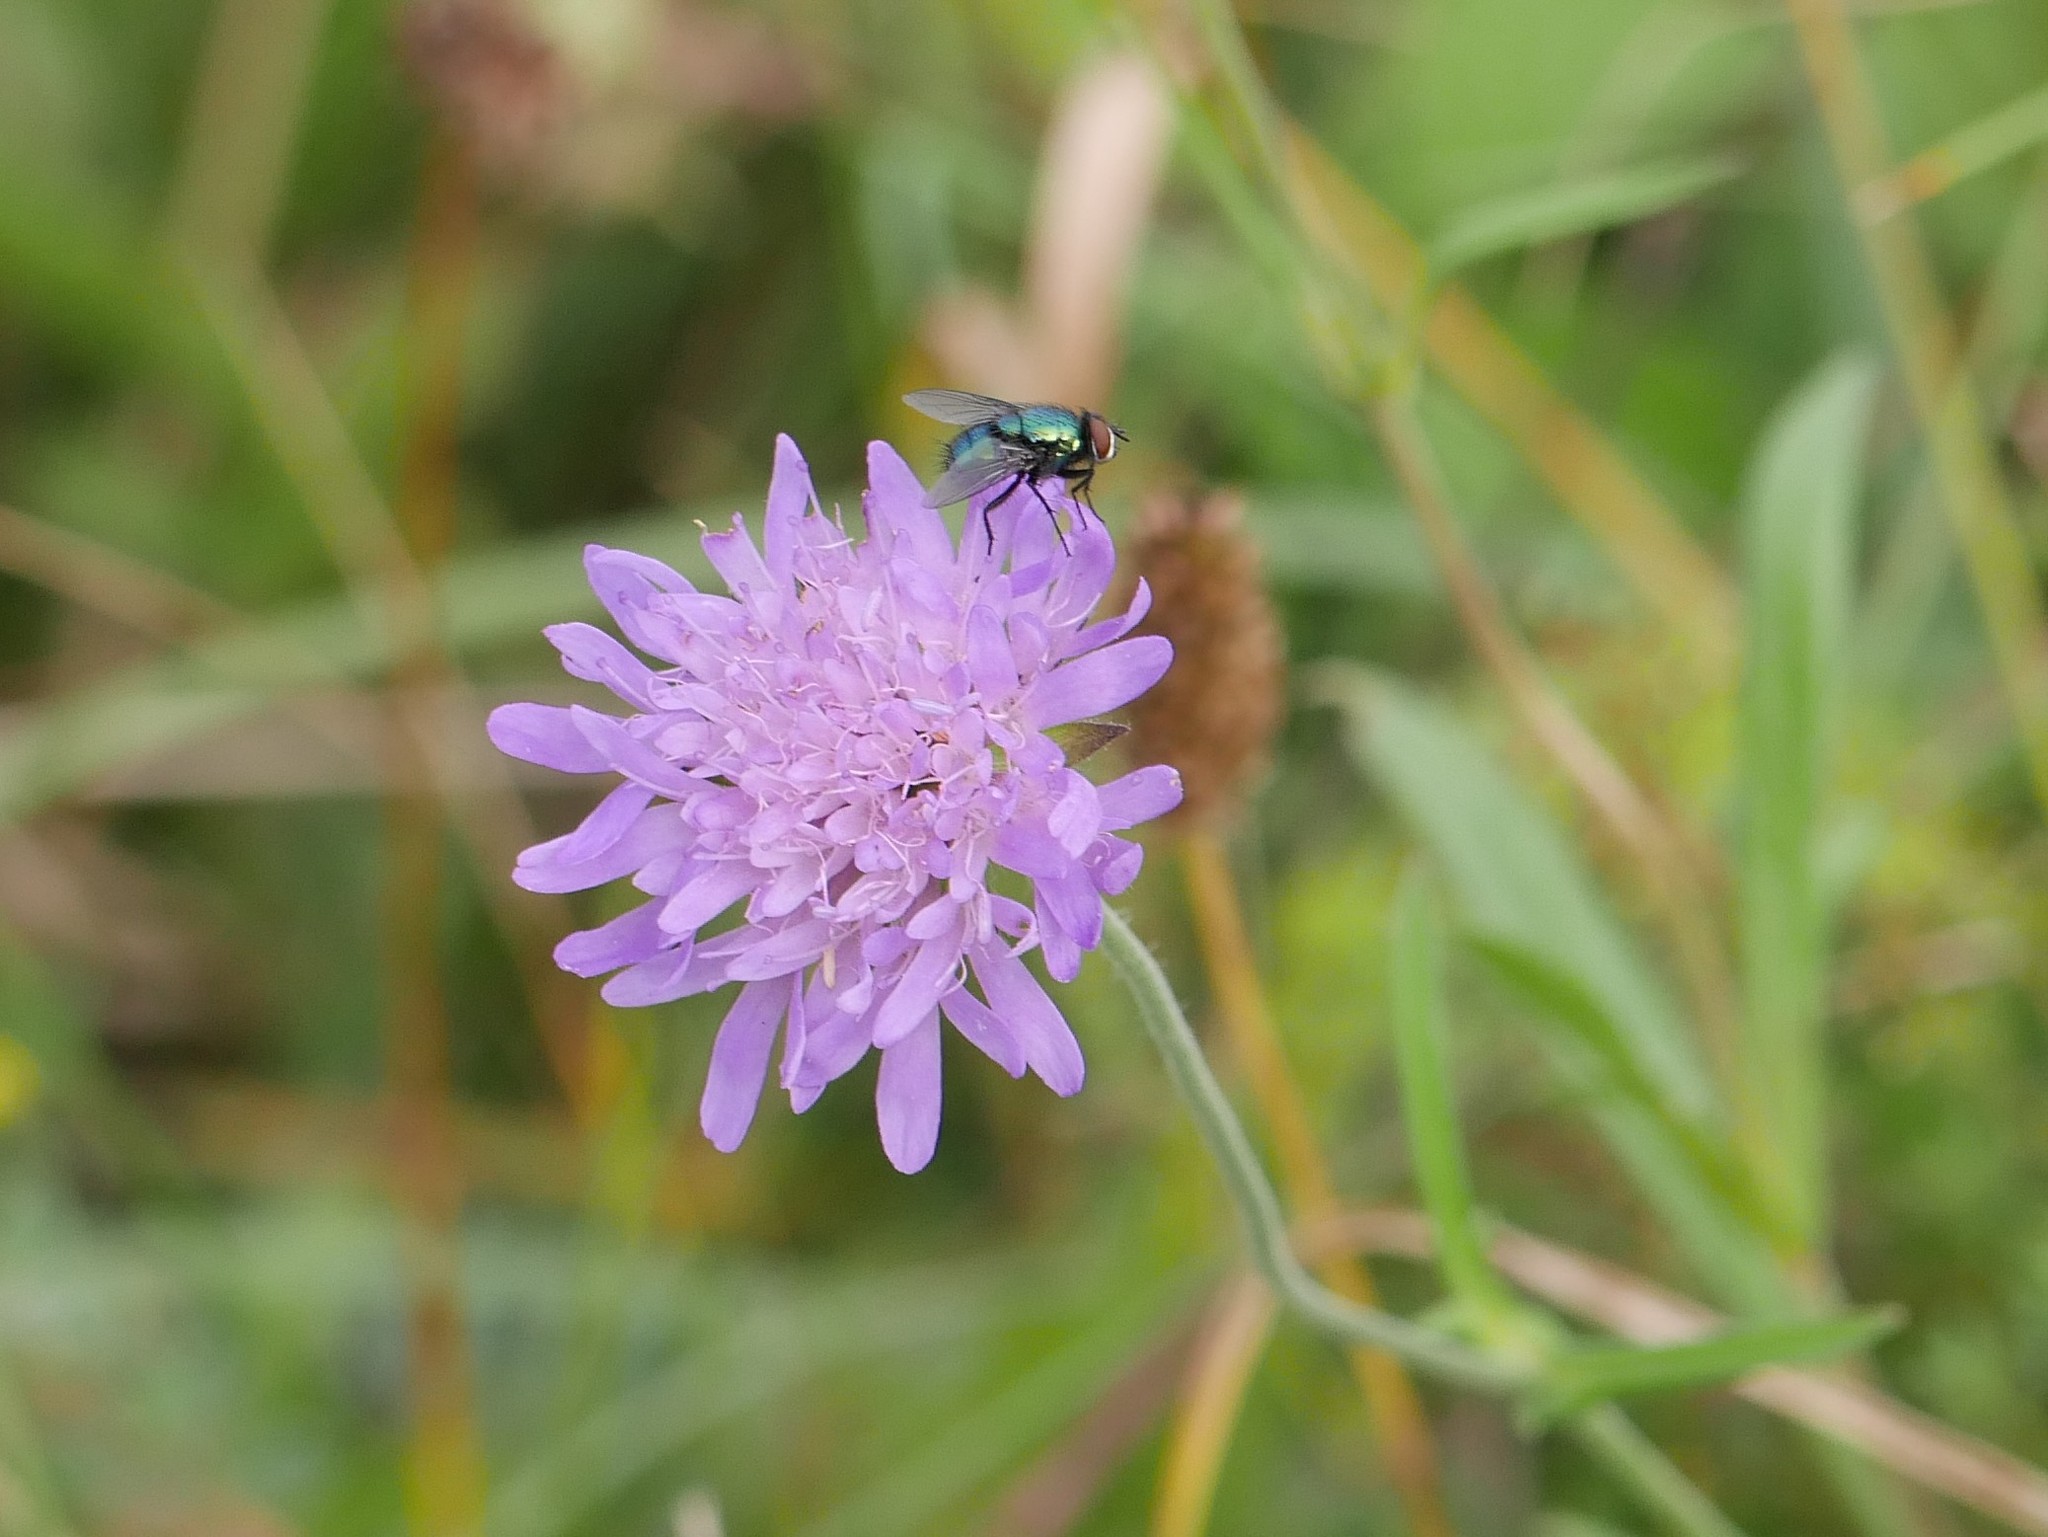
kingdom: Plantae
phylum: Tracheophyta
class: Magnoliopsida
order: Dipsacales
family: Caprifoliaceae
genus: Knautia
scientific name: Knautia arvensis
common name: Field scabiosa
